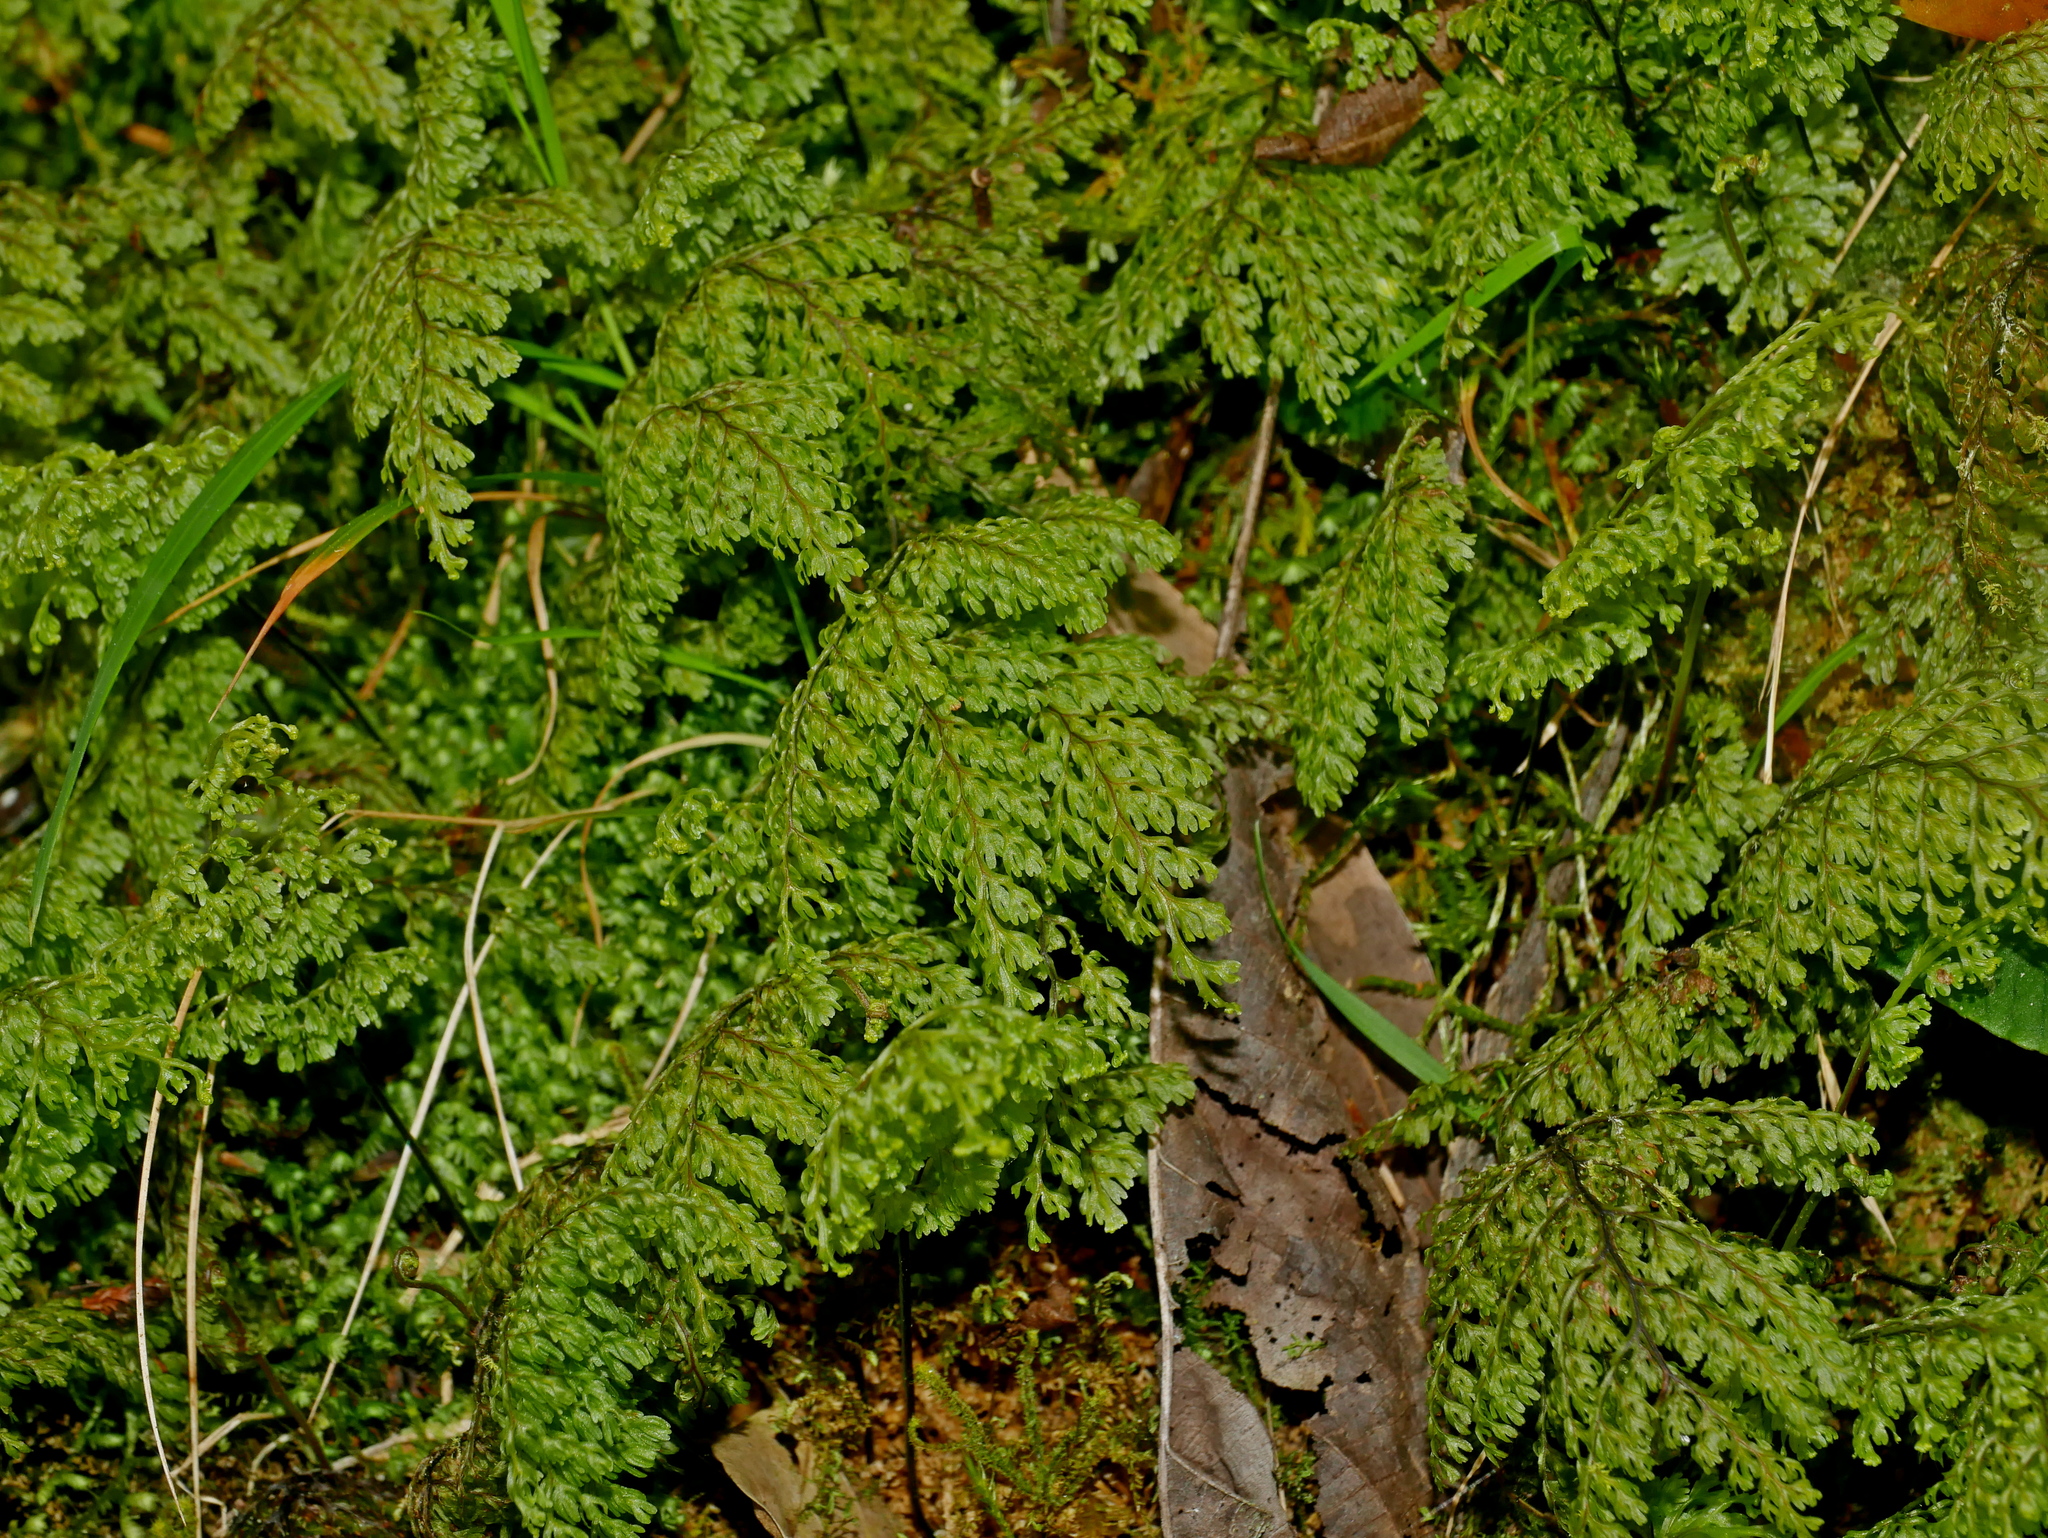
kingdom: Plantae
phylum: Tracheophyta
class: Polypodiopsida
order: Hymenophyllales
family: Hymenophyllaceae
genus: Callistopteris
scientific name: Callistopteris polyantha
